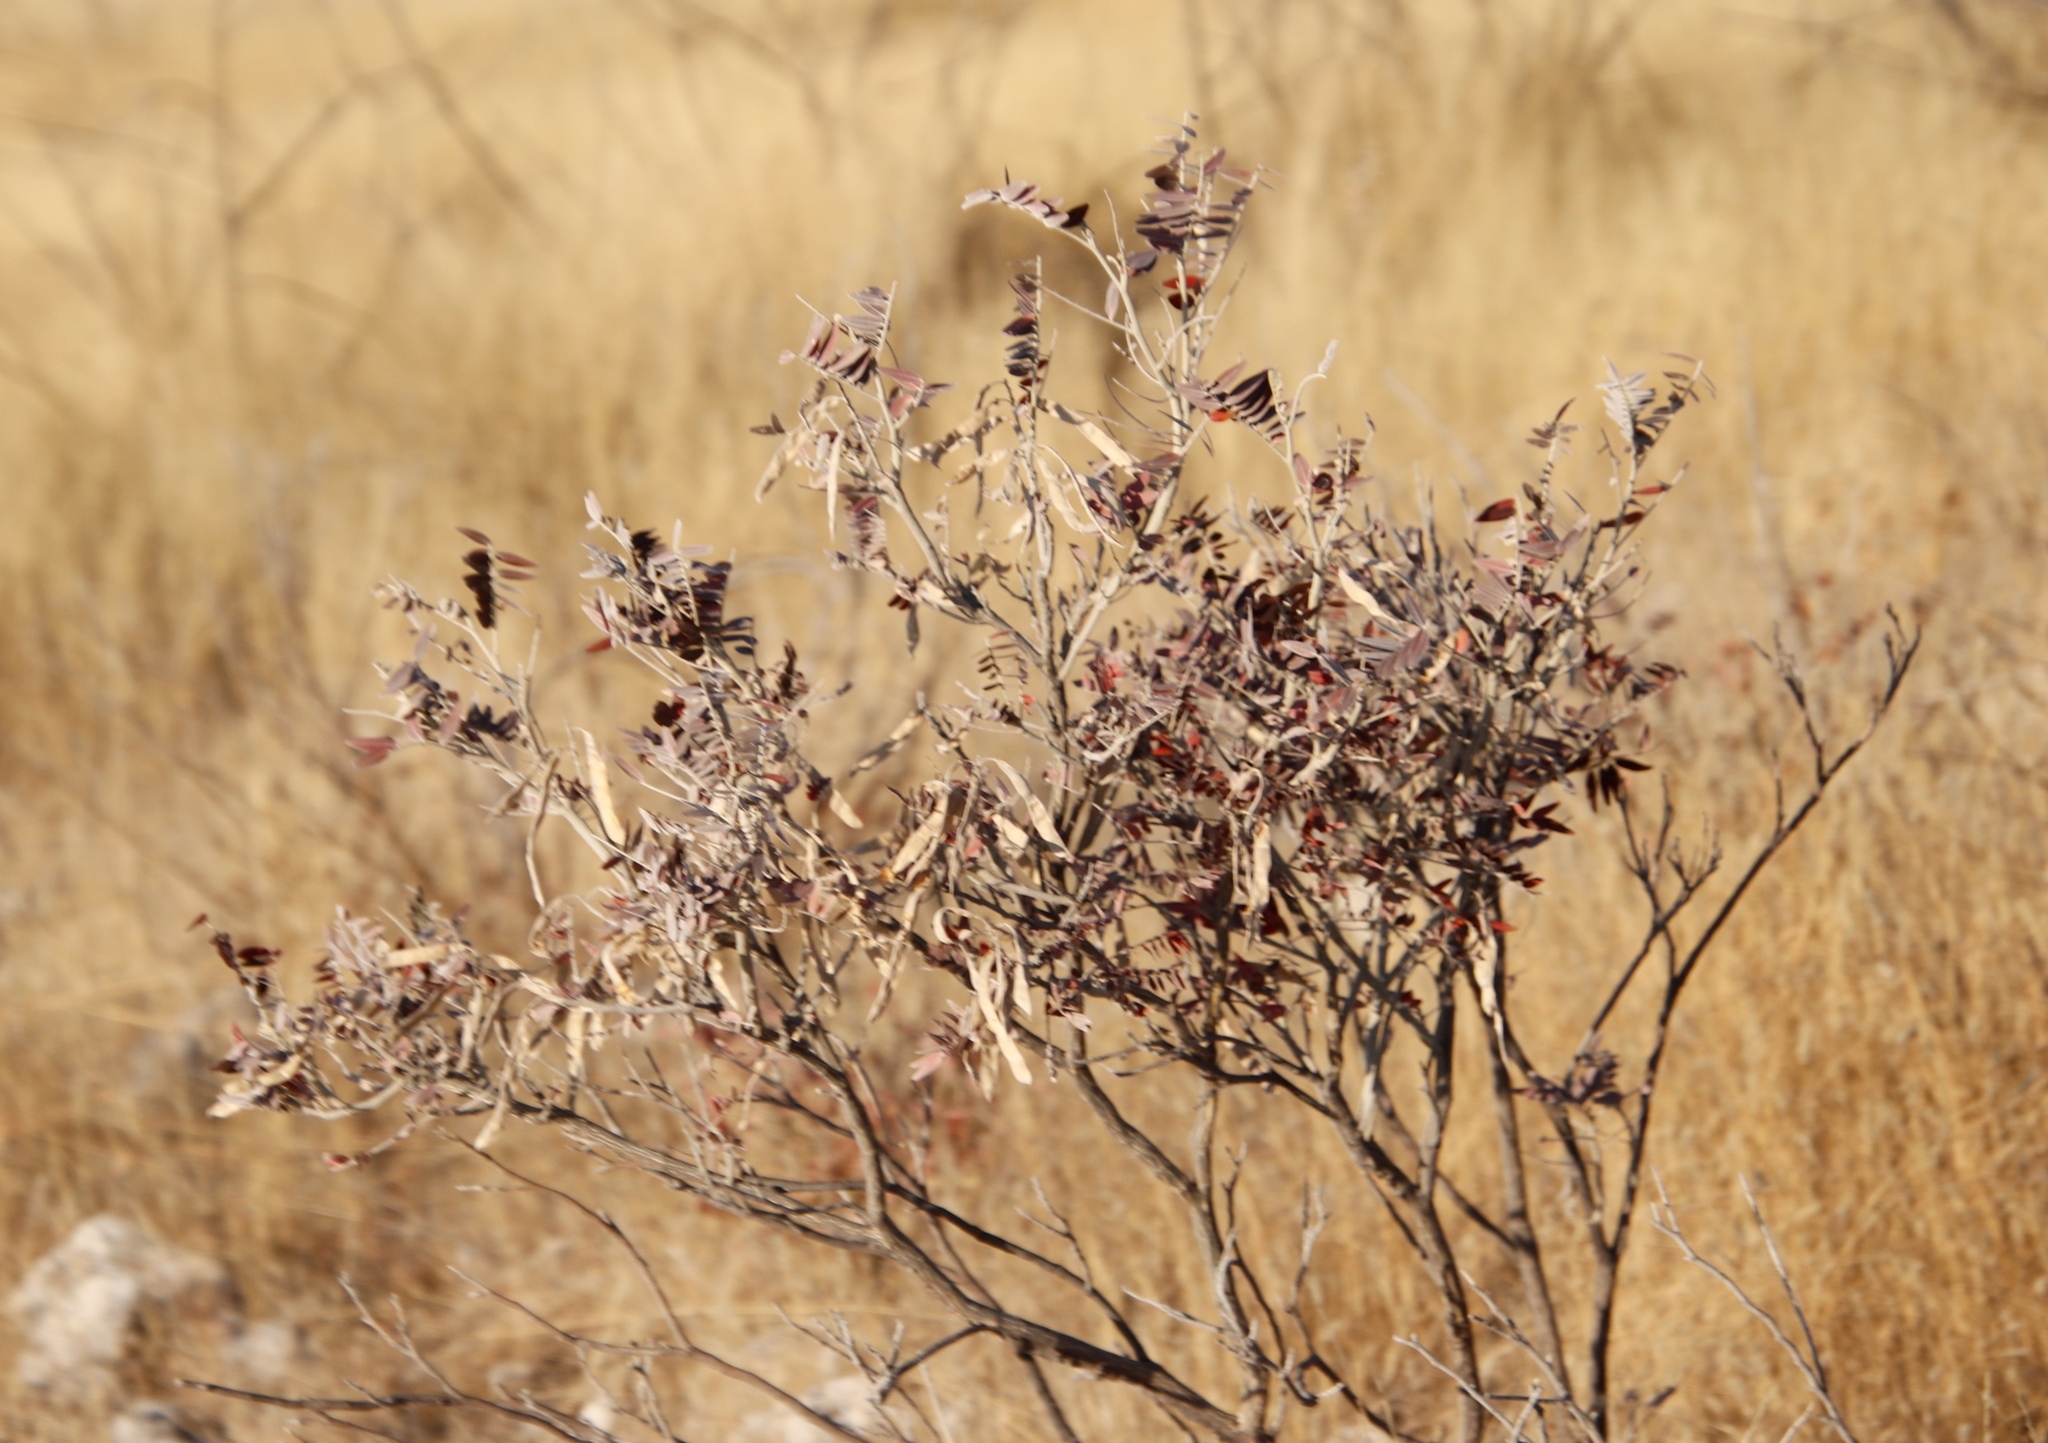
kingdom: Plantae
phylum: Tracheophyta
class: Magnoliopsida
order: Fabales
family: Fabaceae
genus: Mundulea
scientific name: Mundulea sericea
